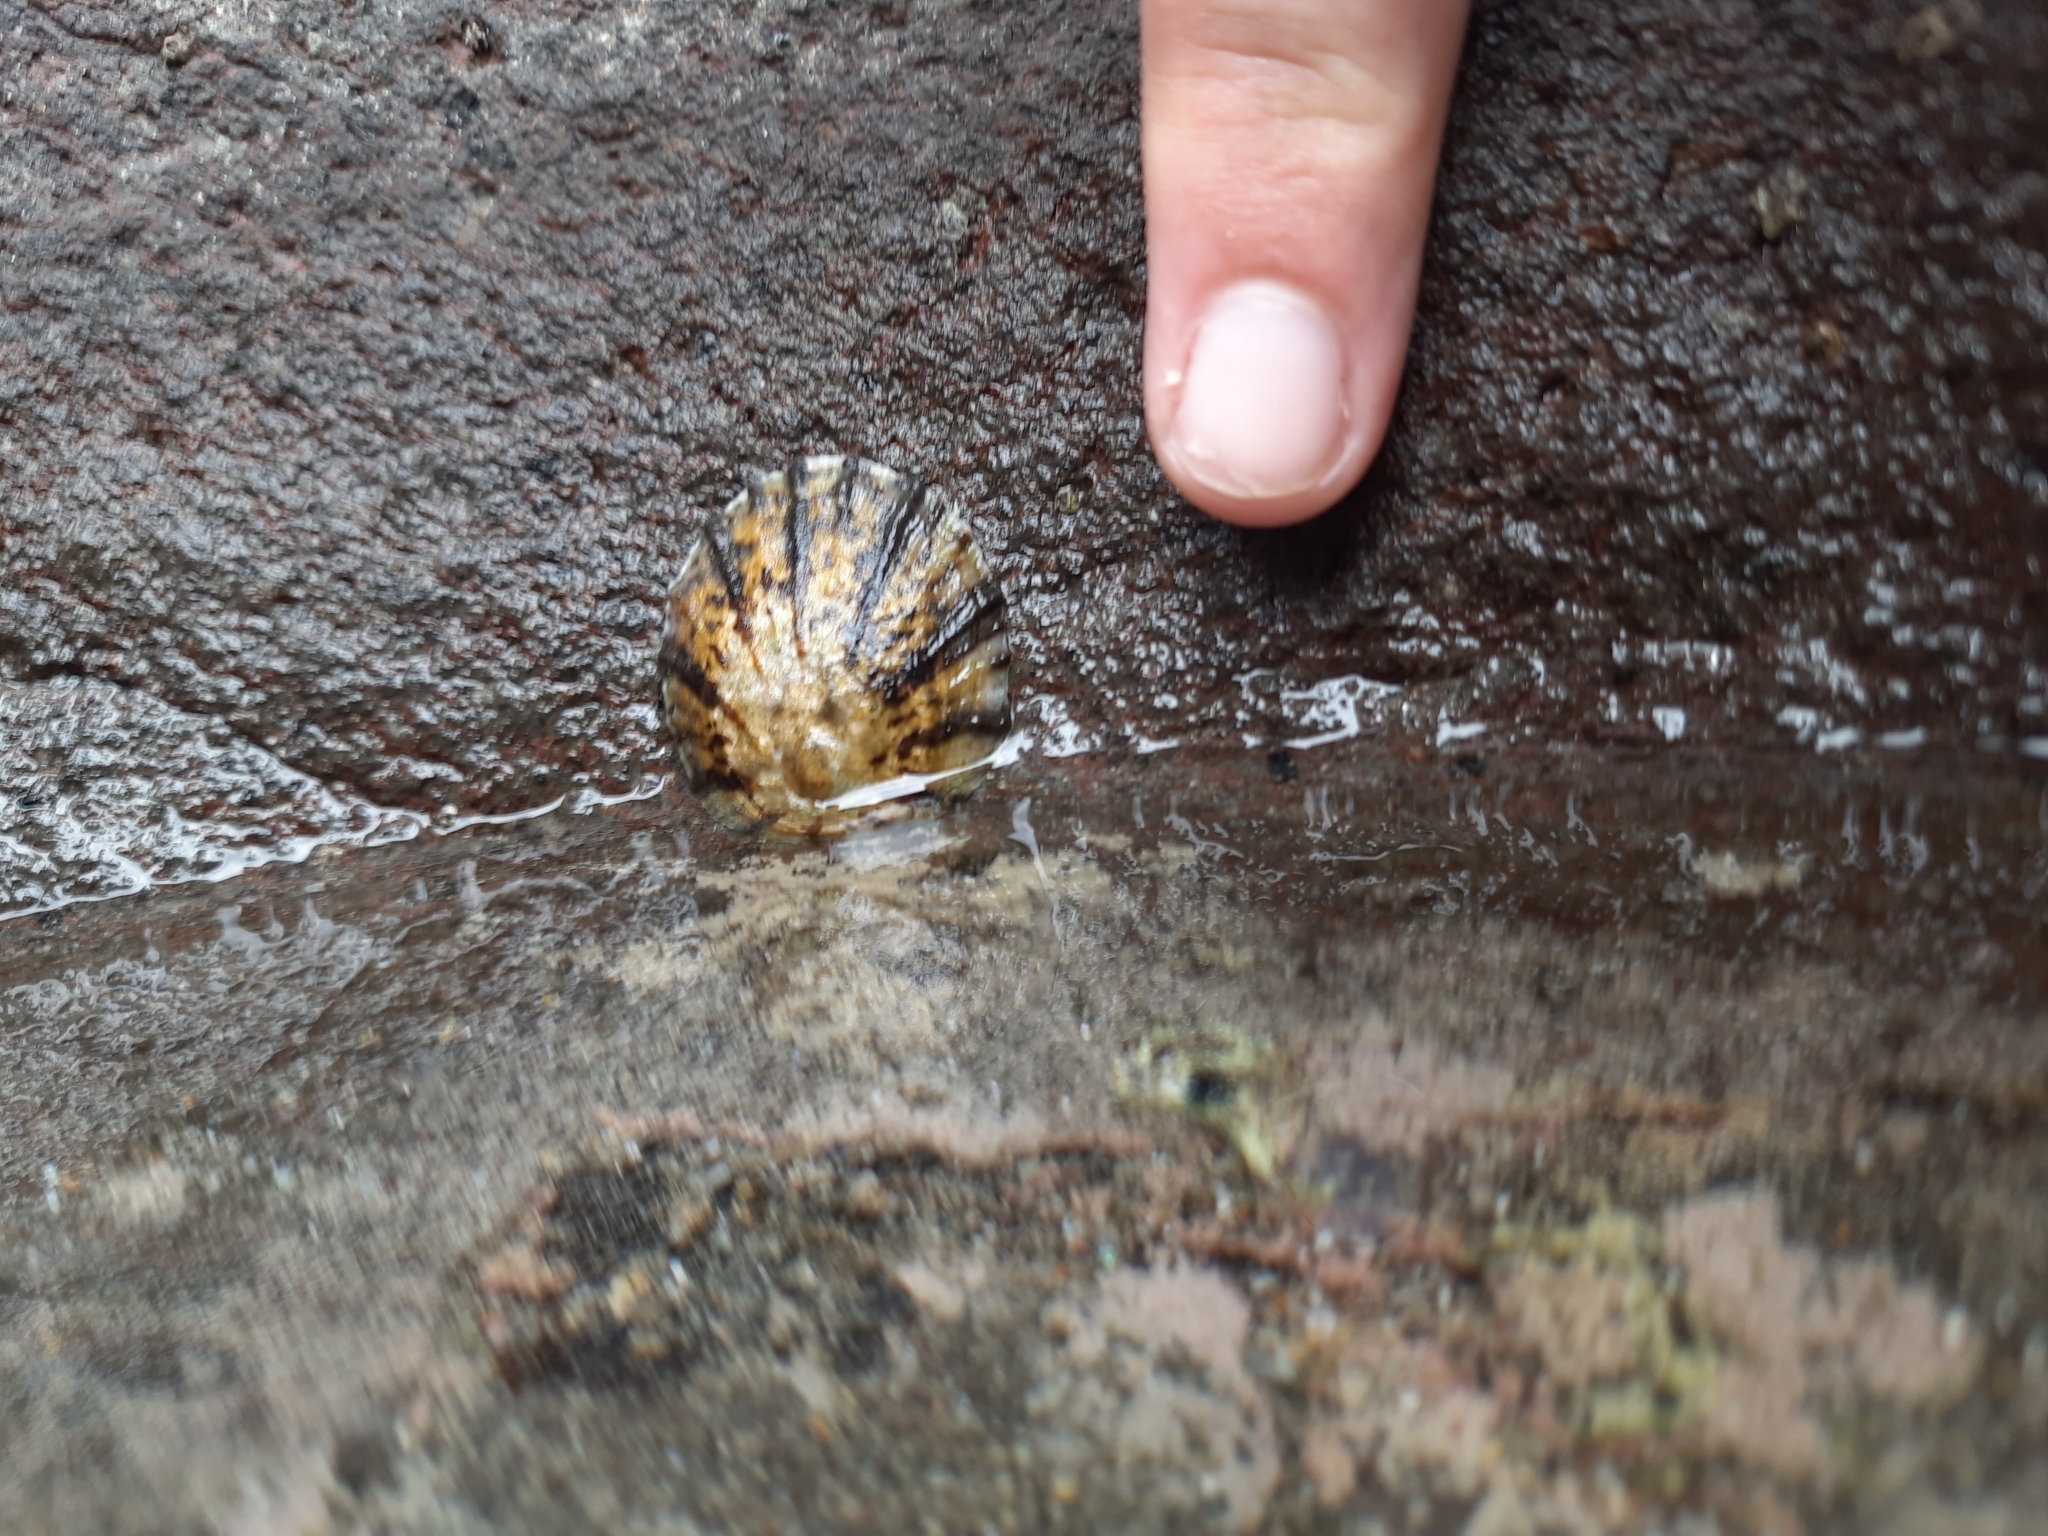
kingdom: Animalia
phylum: Mollusca
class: Gastropoda
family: Nacellidae
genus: Cellana
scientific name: Cellana radians
